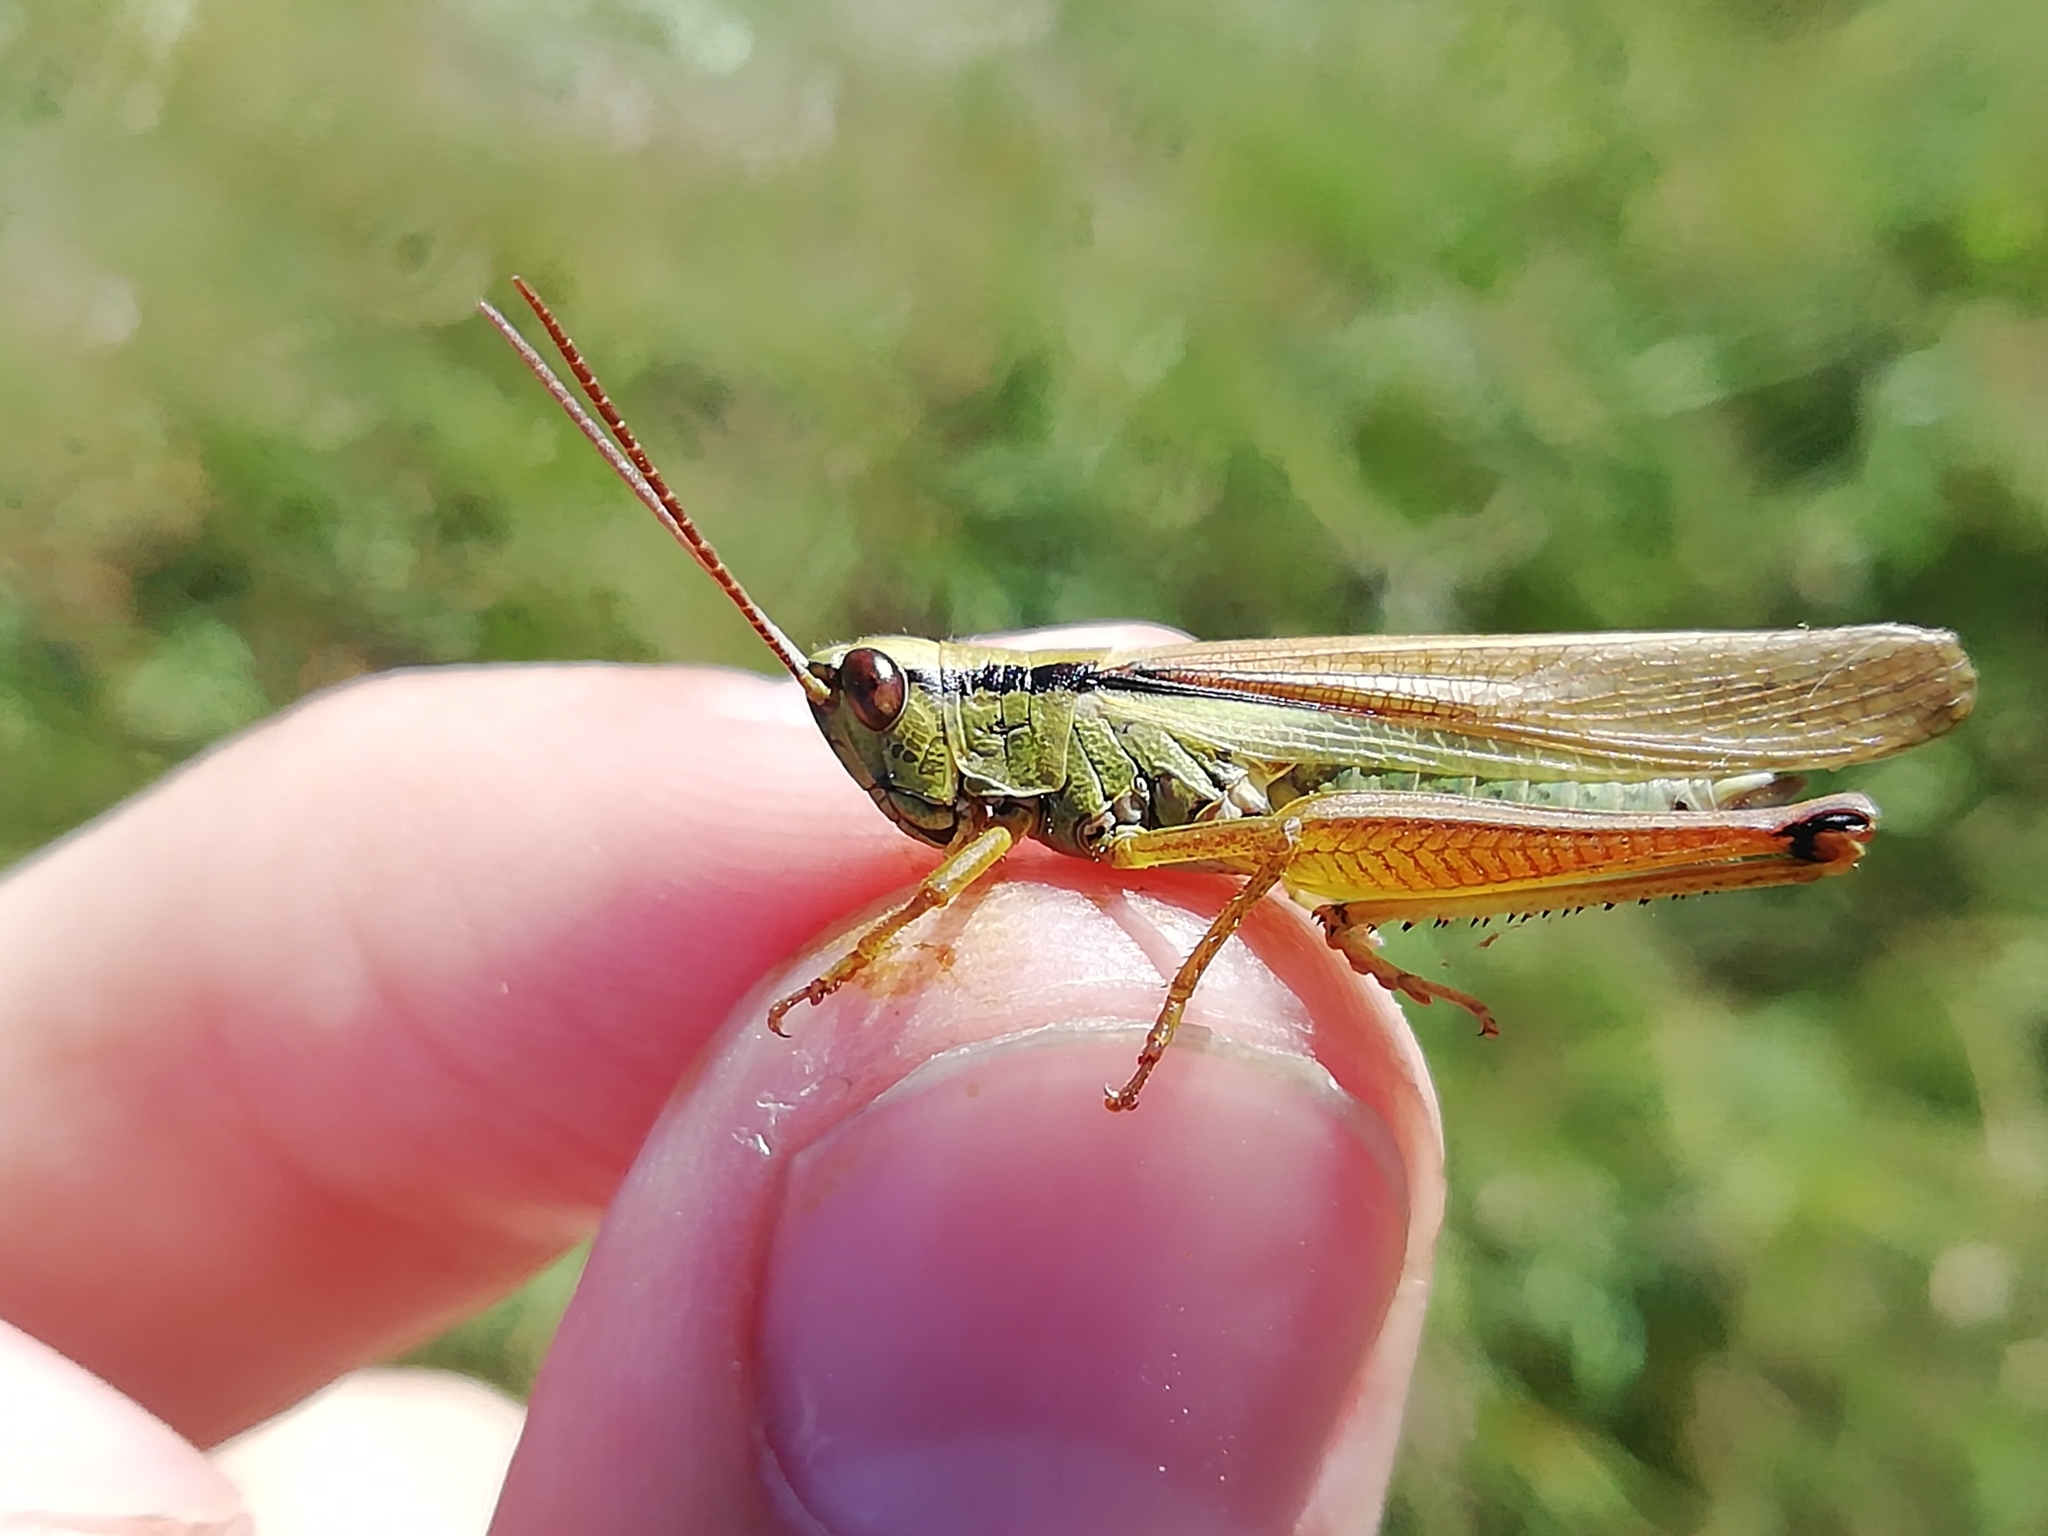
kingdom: Animalia
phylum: Arthropoda
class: Insecta
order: Orthoptera
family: Acrididae
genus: Mecostethus
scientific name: Mecostethus parapleurus
